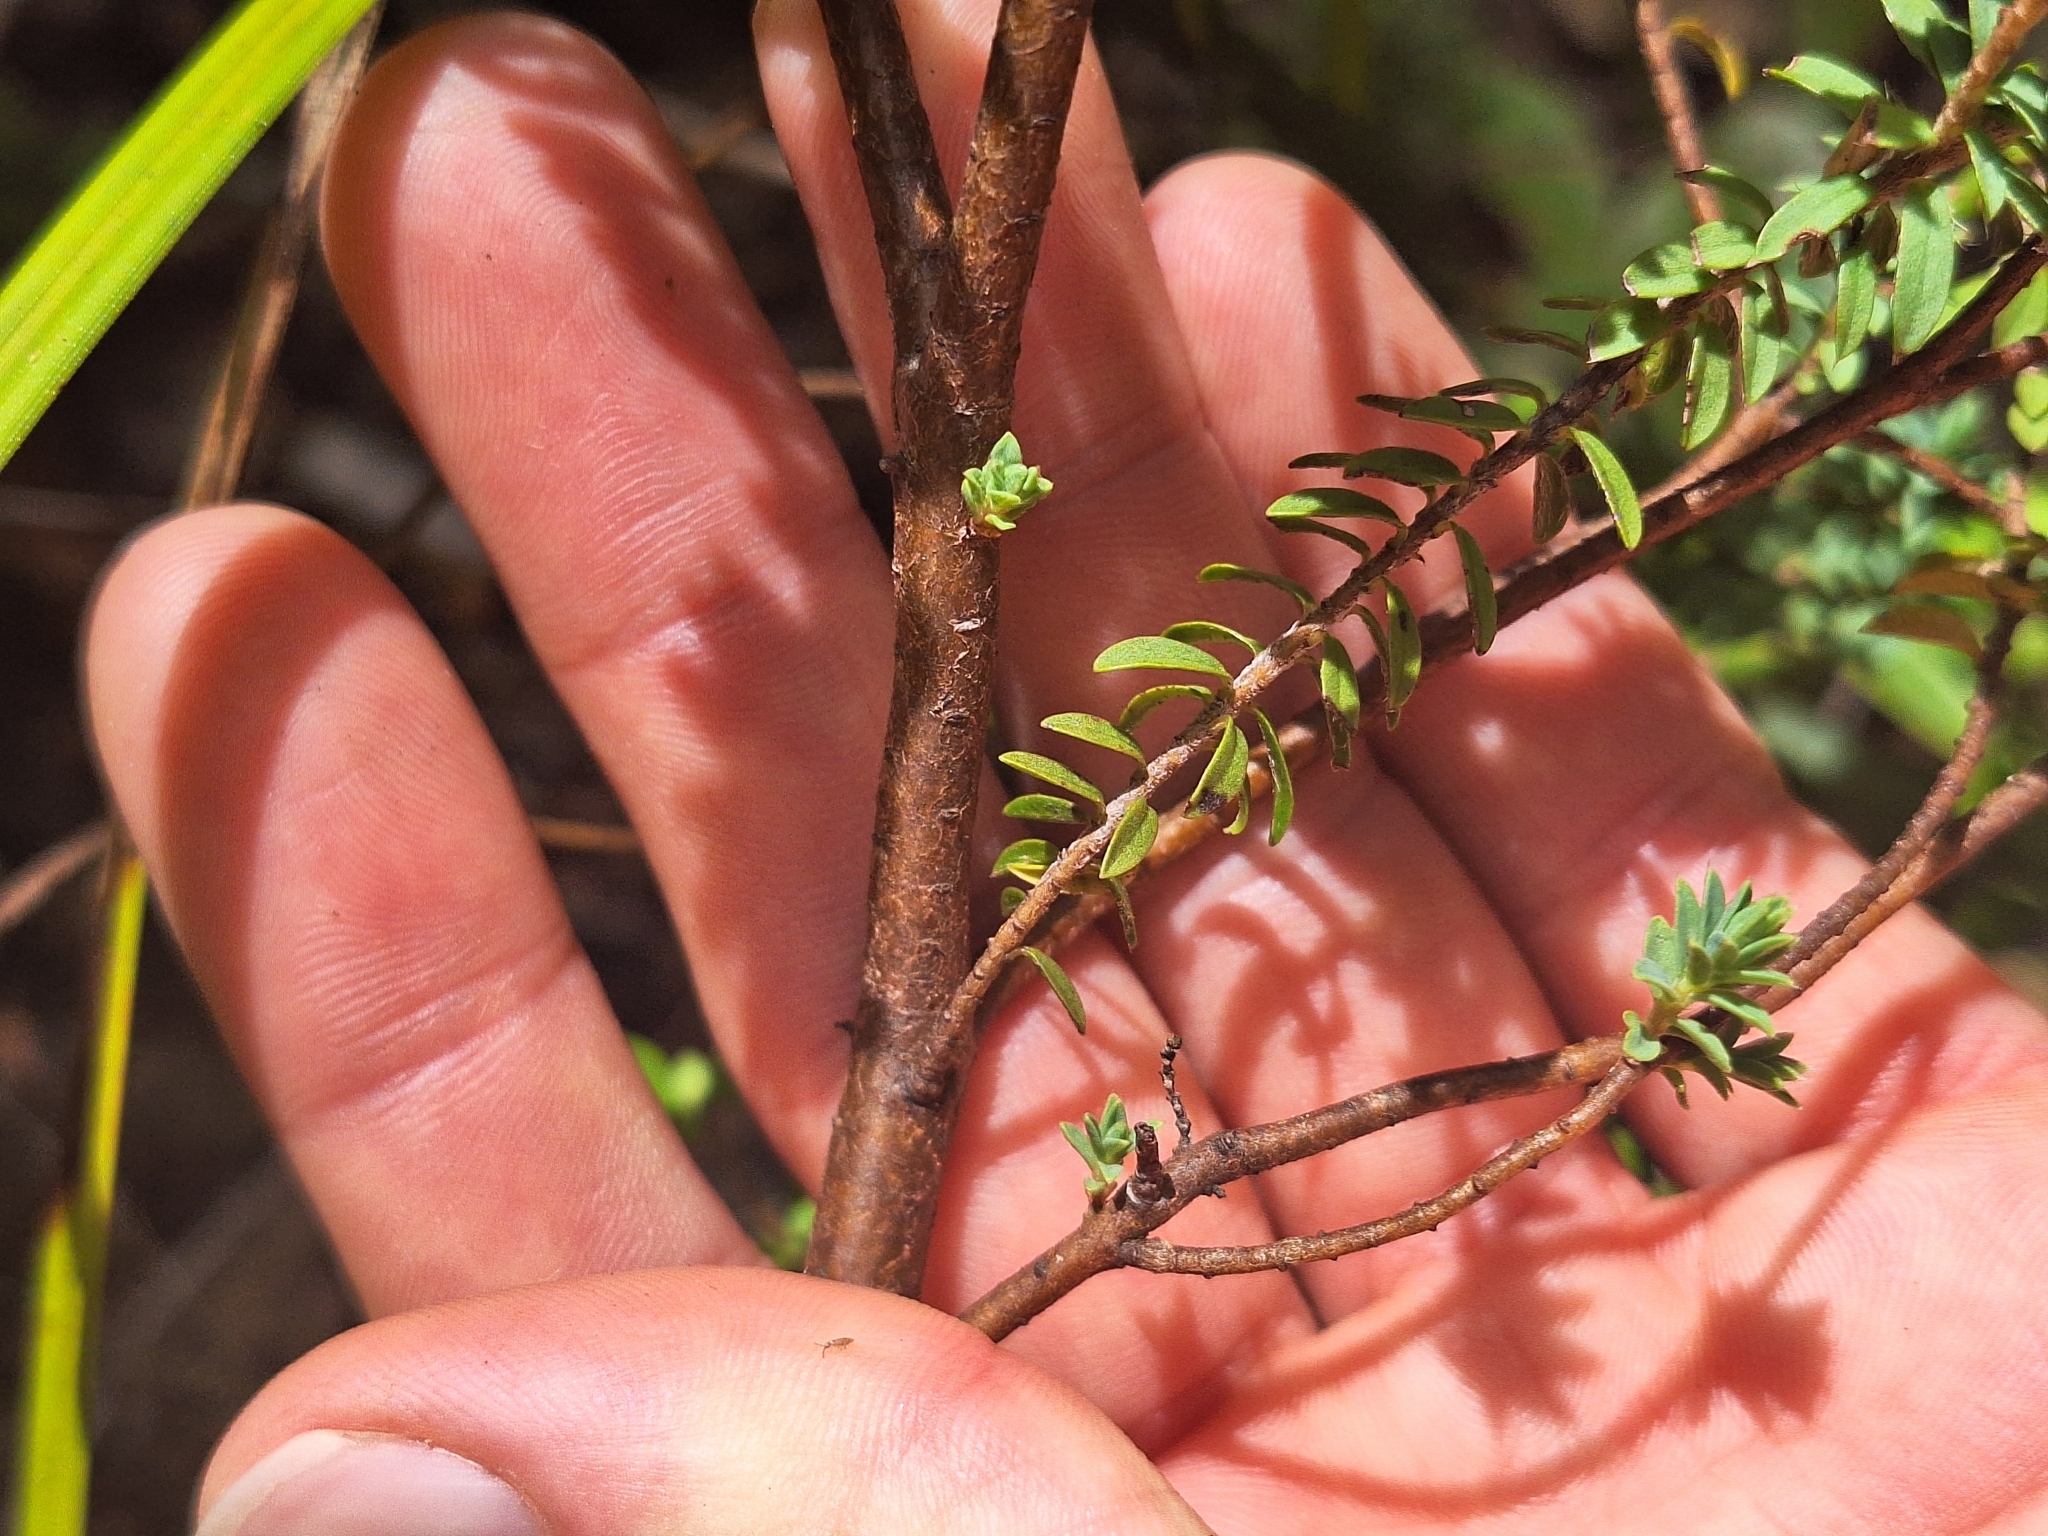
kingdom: Plantae
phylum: Tracheophyta
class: Magnoliopsida
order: Malvales
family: Thymelaeaceae
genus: Pimelea
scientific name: Pimelea acra
